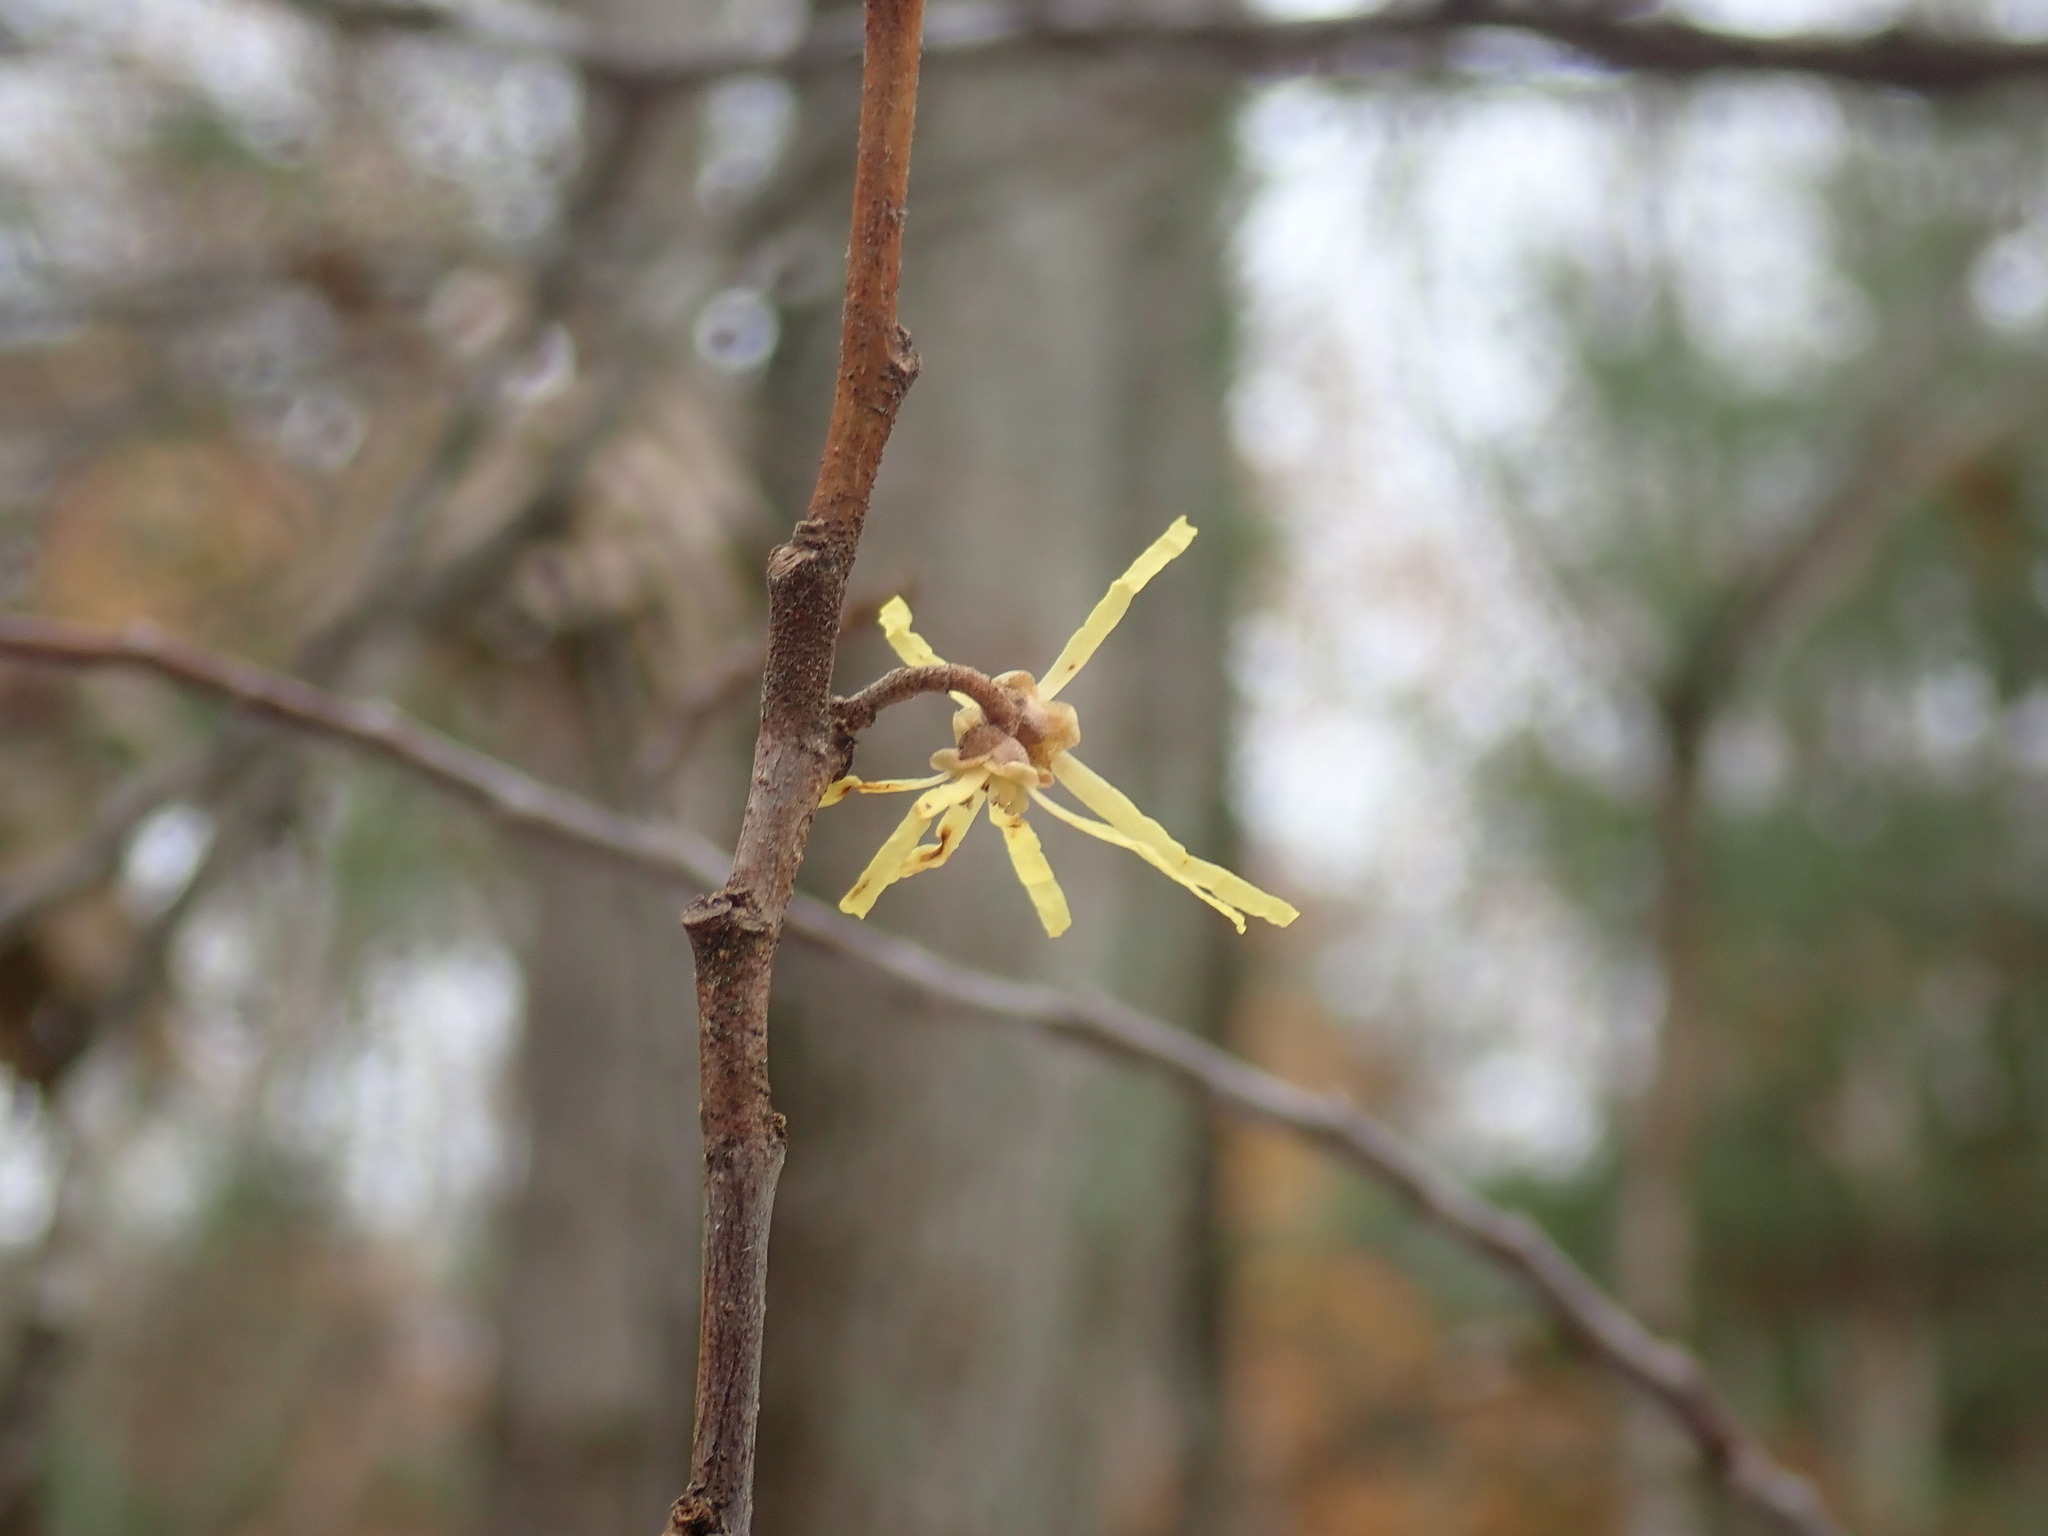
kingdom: Plantae
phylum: Tracheophyta
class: Magnoliopsida
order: Saxifragales
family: Hamamelidaceae
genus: Hamamelis
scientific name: Hamamelis virginiana
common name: Witch-hazel
